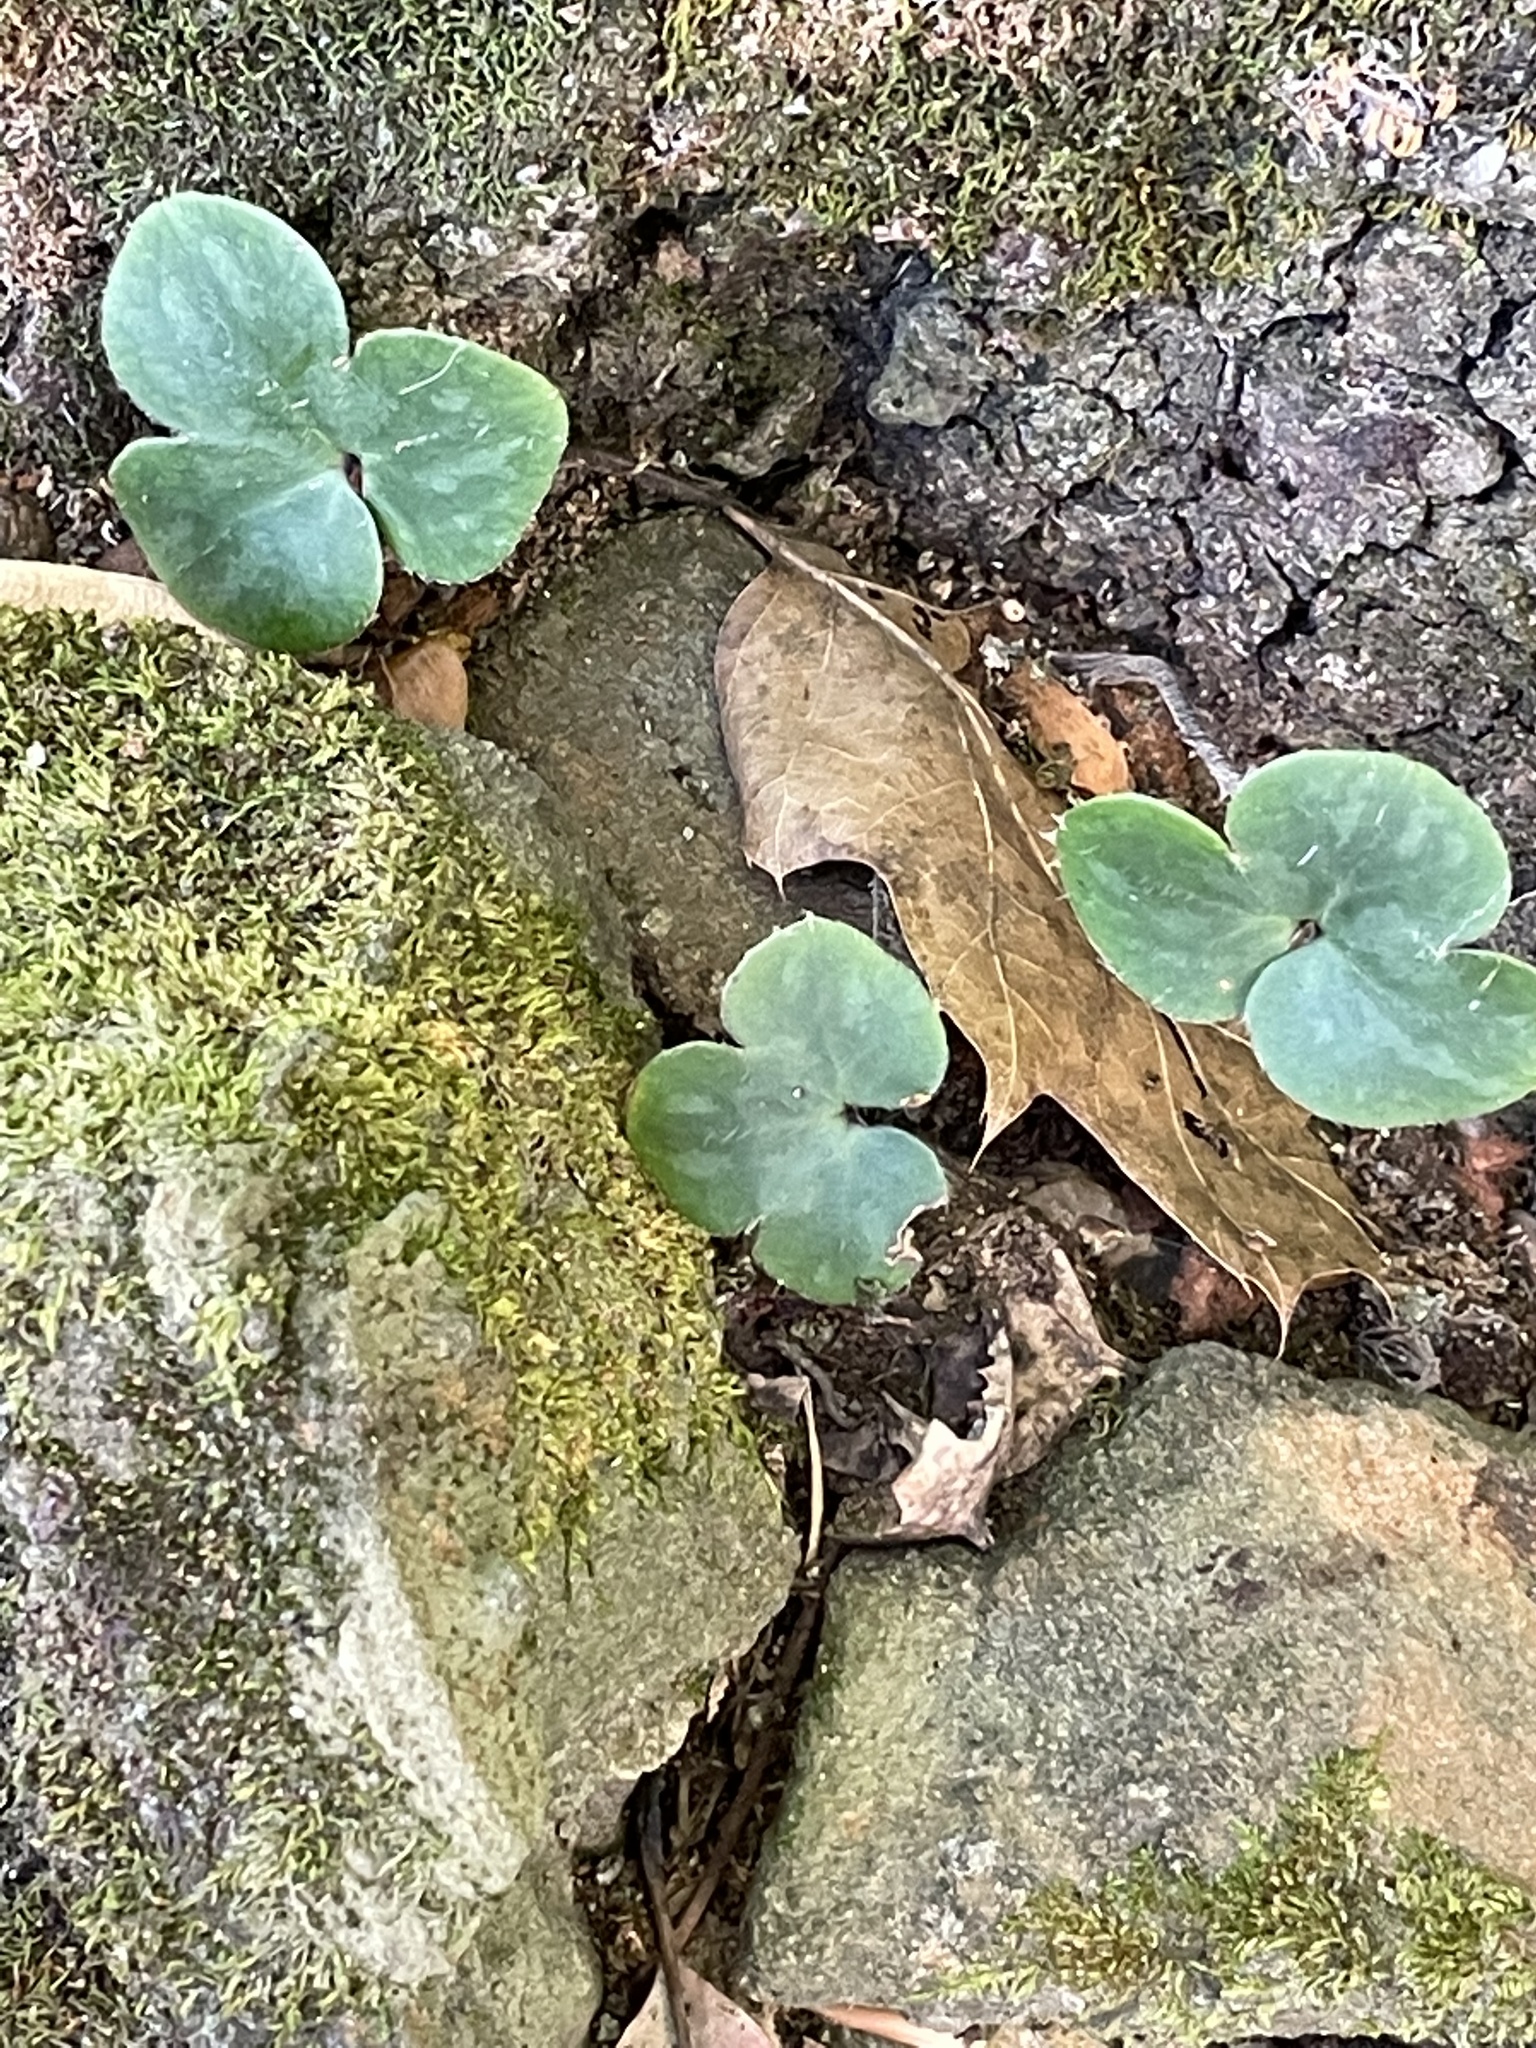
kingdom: Plantae
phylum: Tracheophyta
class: Magnoliopsida
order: Ranunculales
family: Ranunculaceae
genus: Hepatica
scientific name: Hepatica americana
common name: American hepatica
